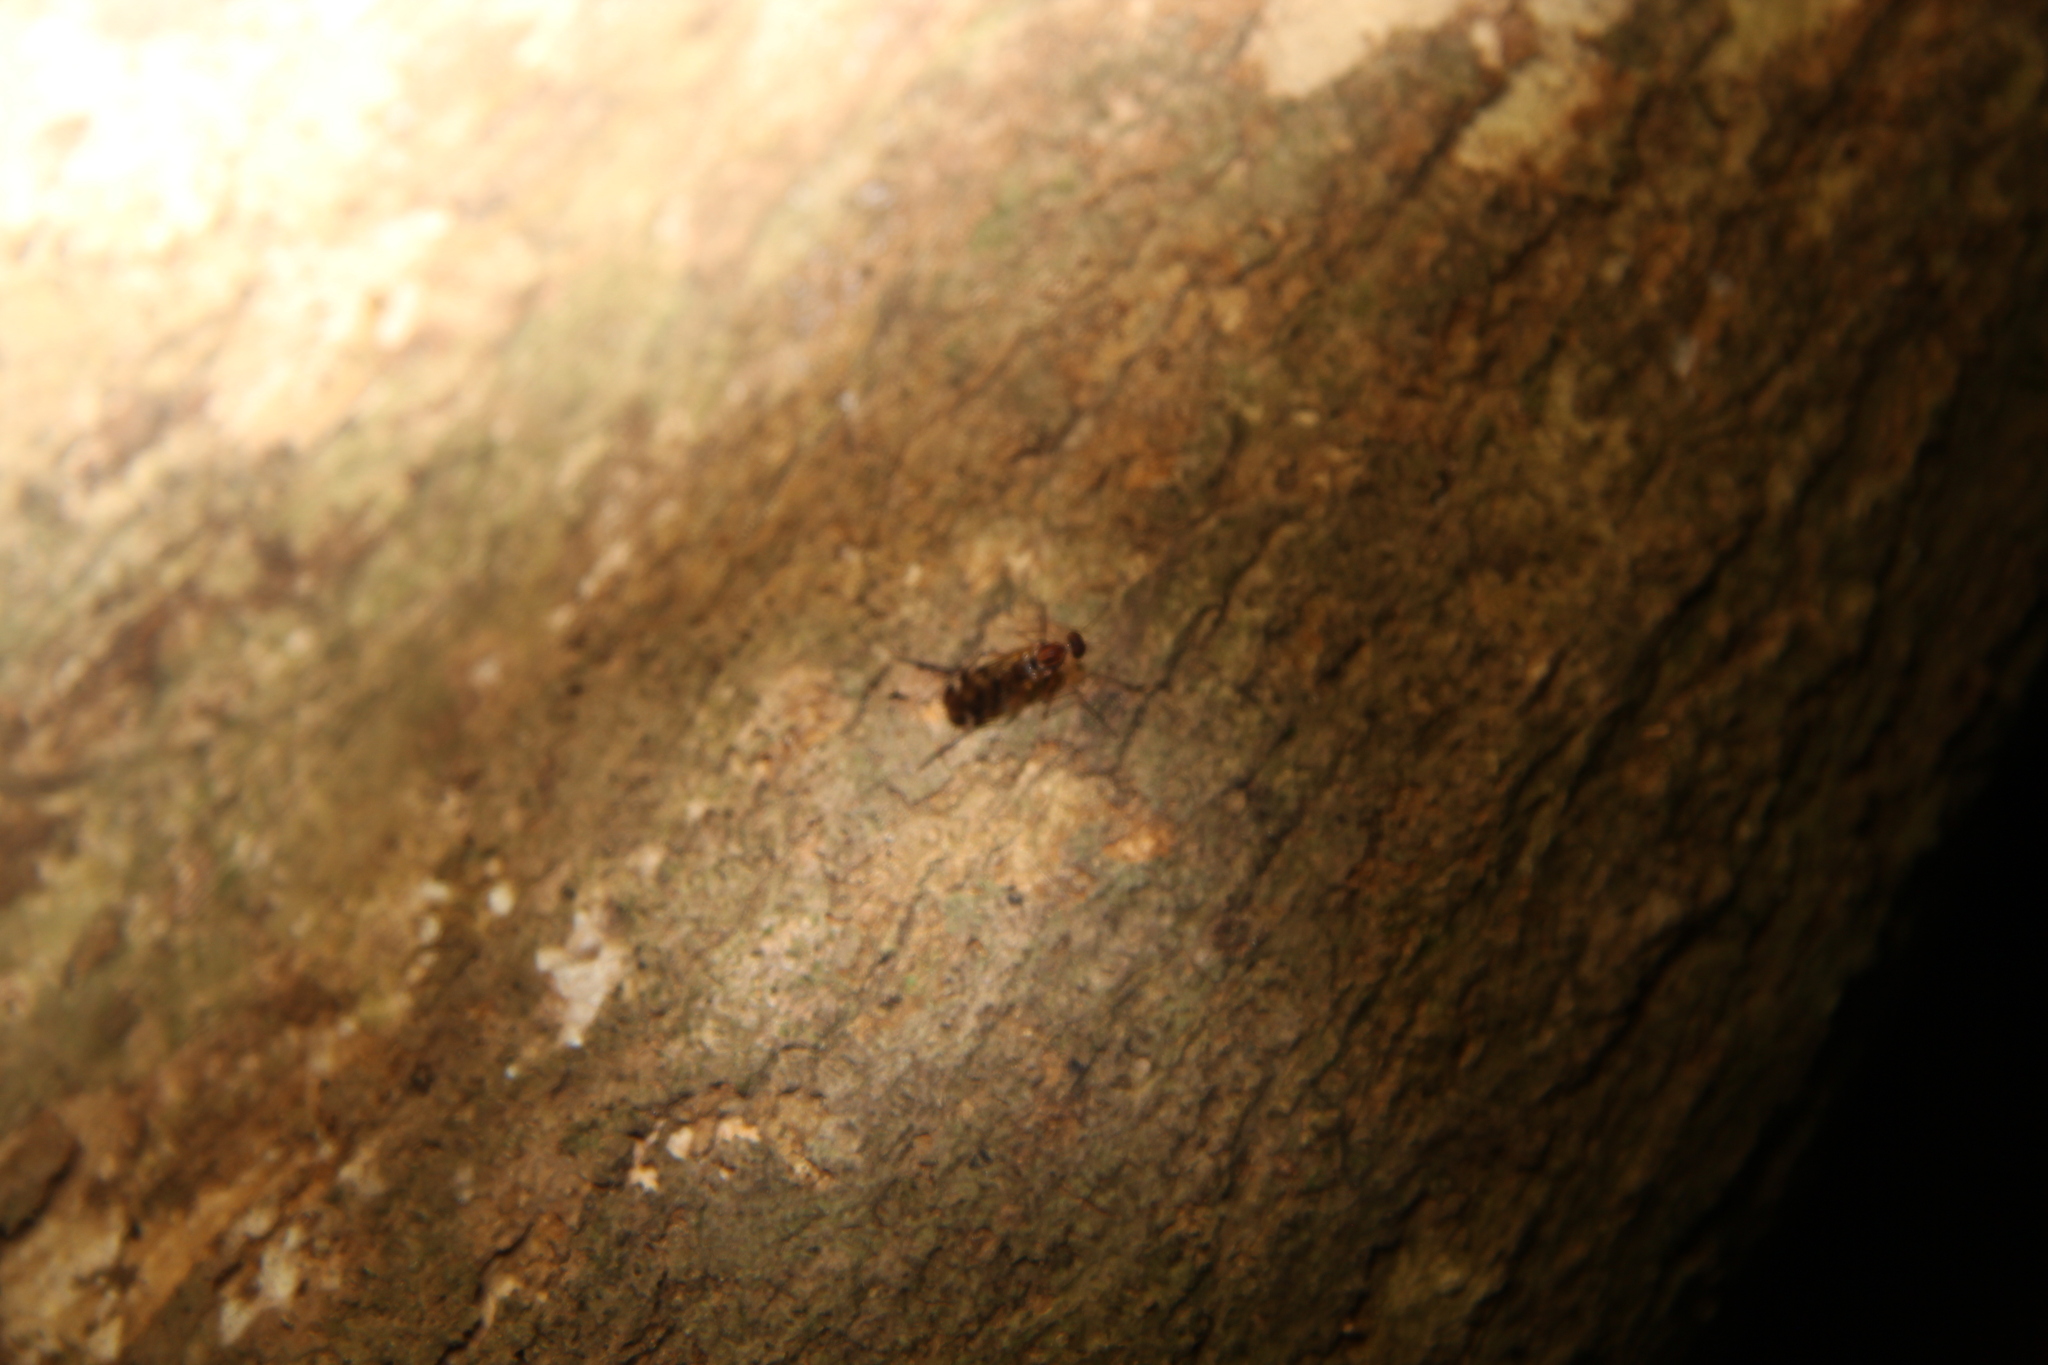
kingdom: Animalia
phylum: Arthropoda
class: Insecta
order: Diptera
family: Anisopodidae
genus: Sylvicola
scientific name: Sylvicola notatus
